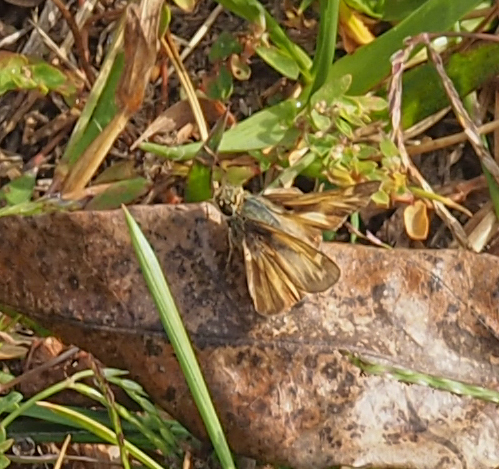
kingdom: Animalia
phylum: Arthropoda
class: Insecta
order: Lepidoptera
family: Hesperiidae
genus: Atalopedes
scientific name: Atalopedes
